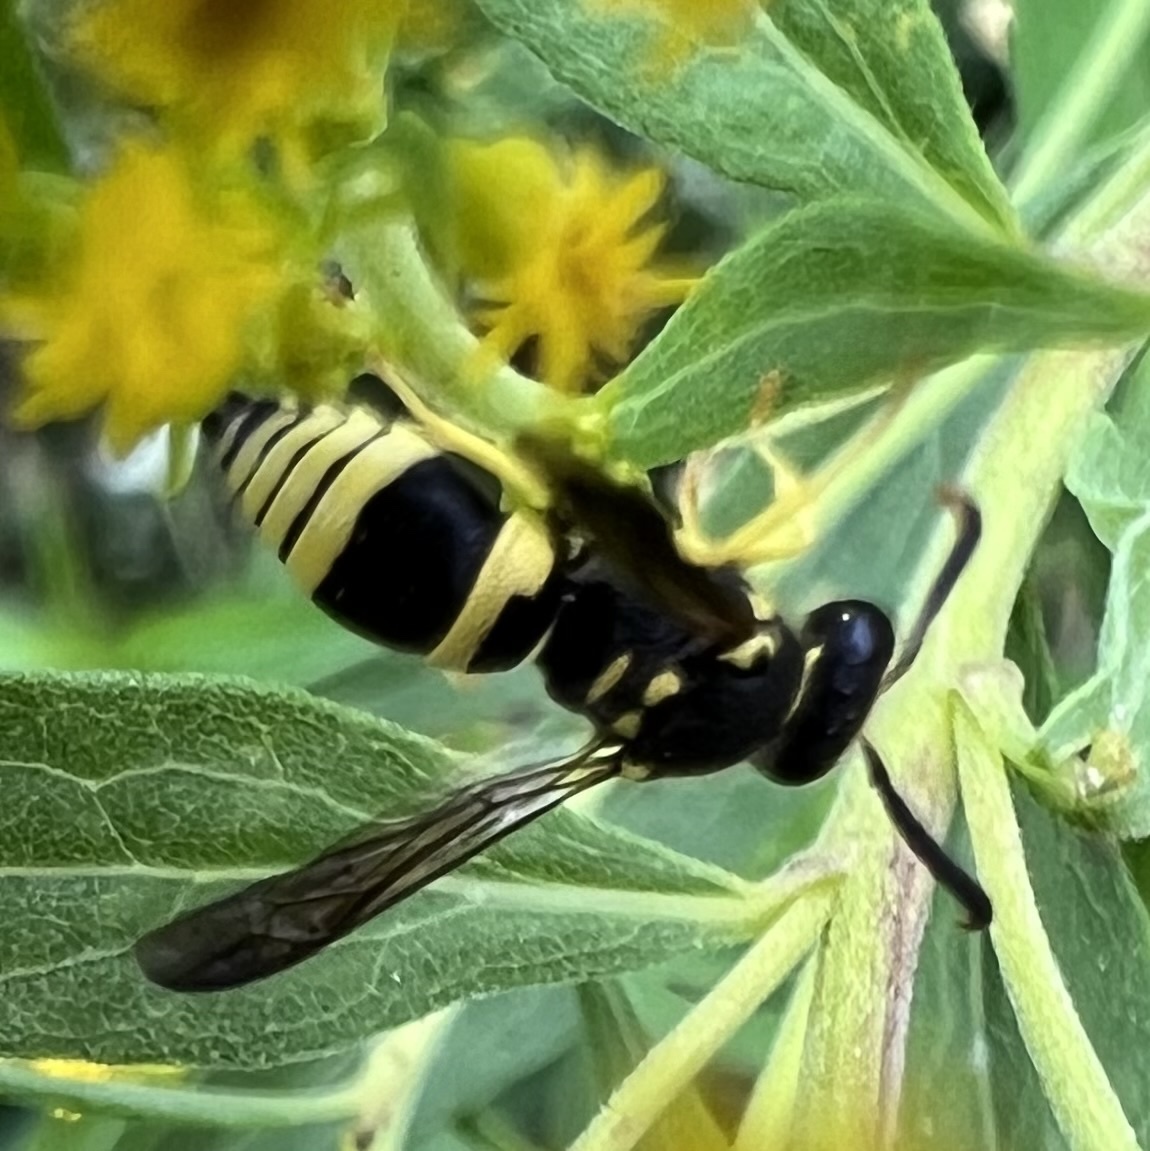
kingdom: Animalia
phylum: Arthropoda
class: Insecta
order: Hymenoptera
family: Vespidae
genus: Ancistrocerus
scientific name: Ancistrocerus gazella
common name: European tube wasp
